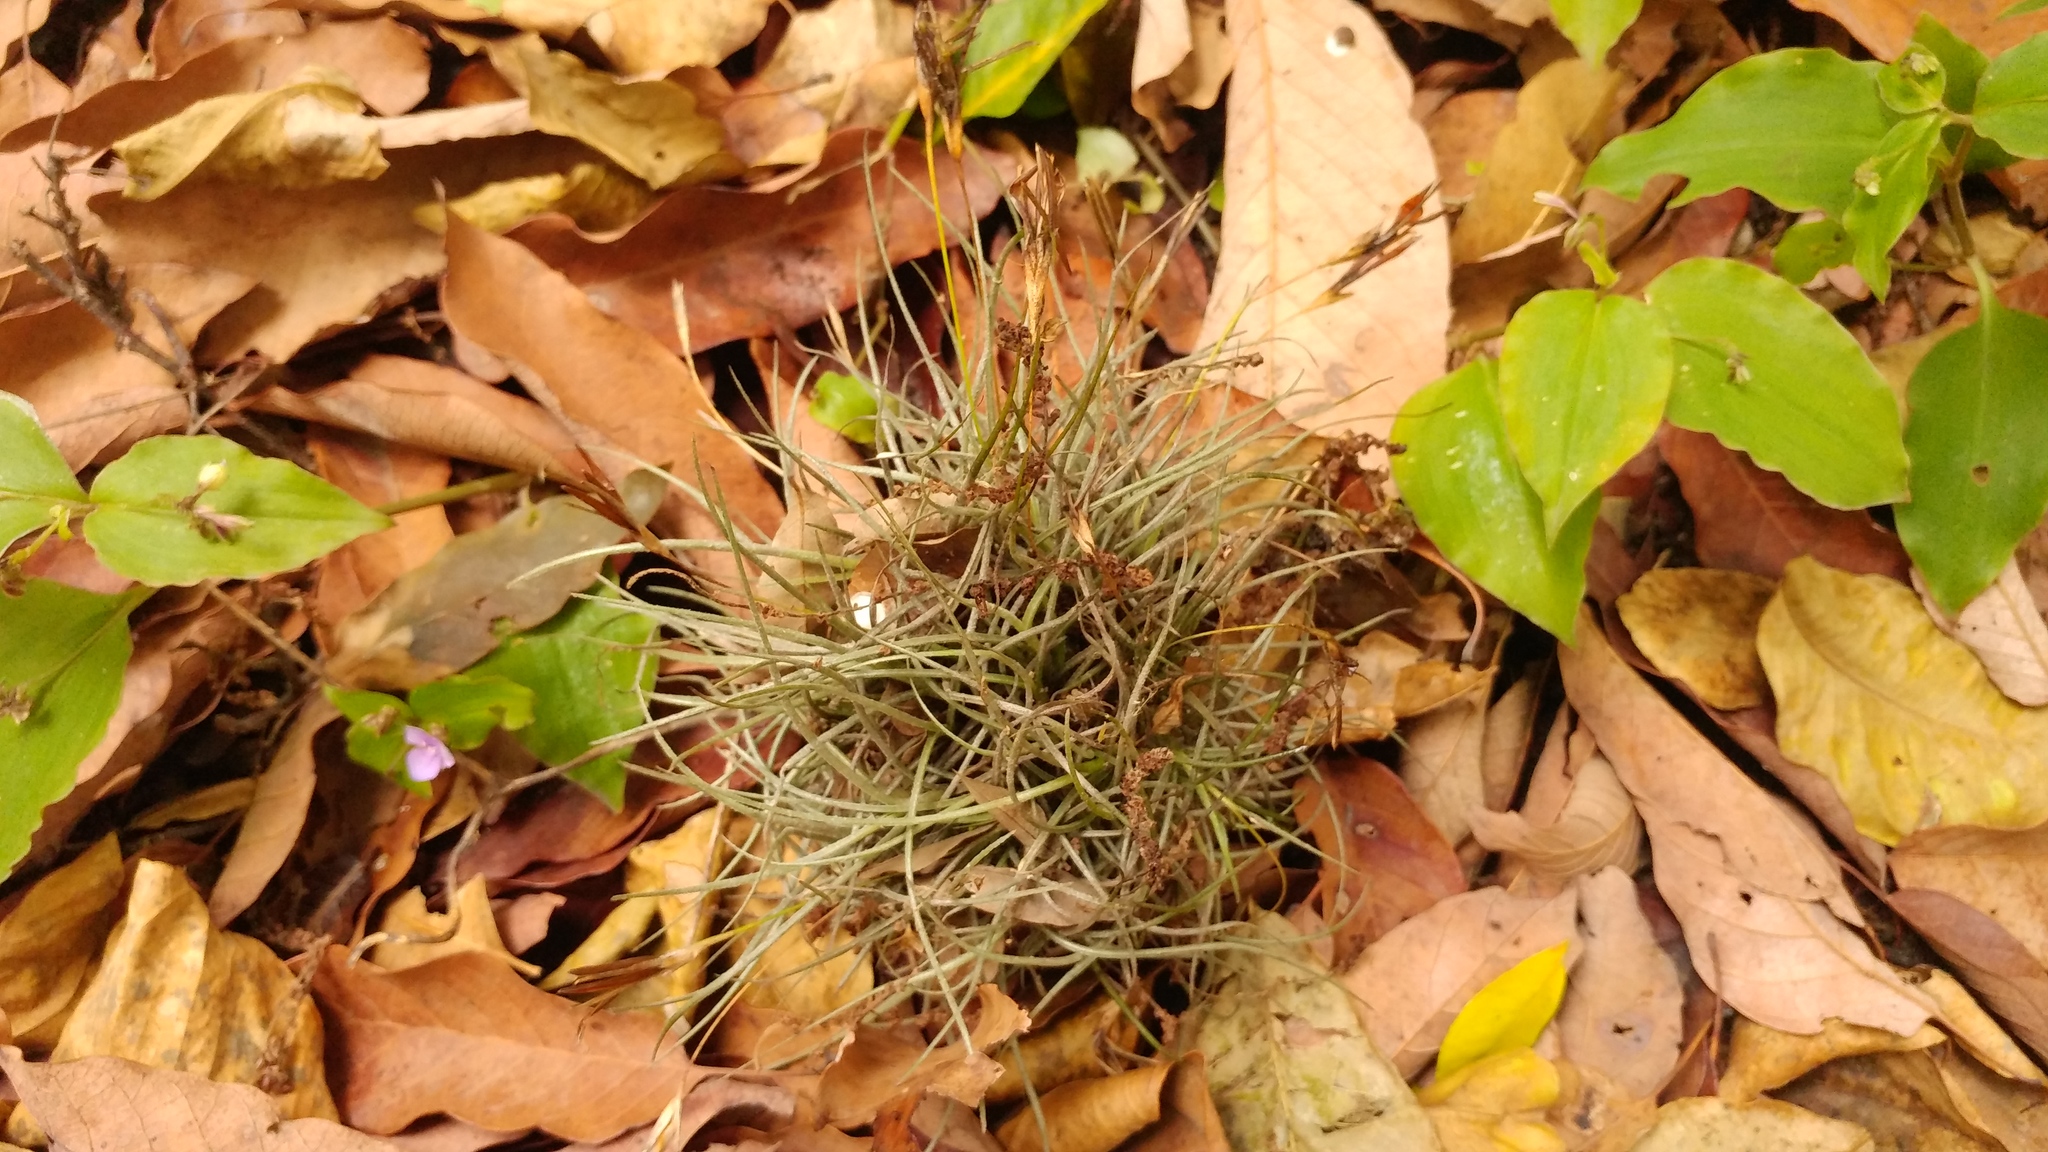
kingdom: Plantae
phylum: Tracheophyta
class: Liliopsida
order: Poales
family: Bromeliaceae
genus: Tillandsia
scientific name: Tillandsia recurvata
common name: Small ballmoss
